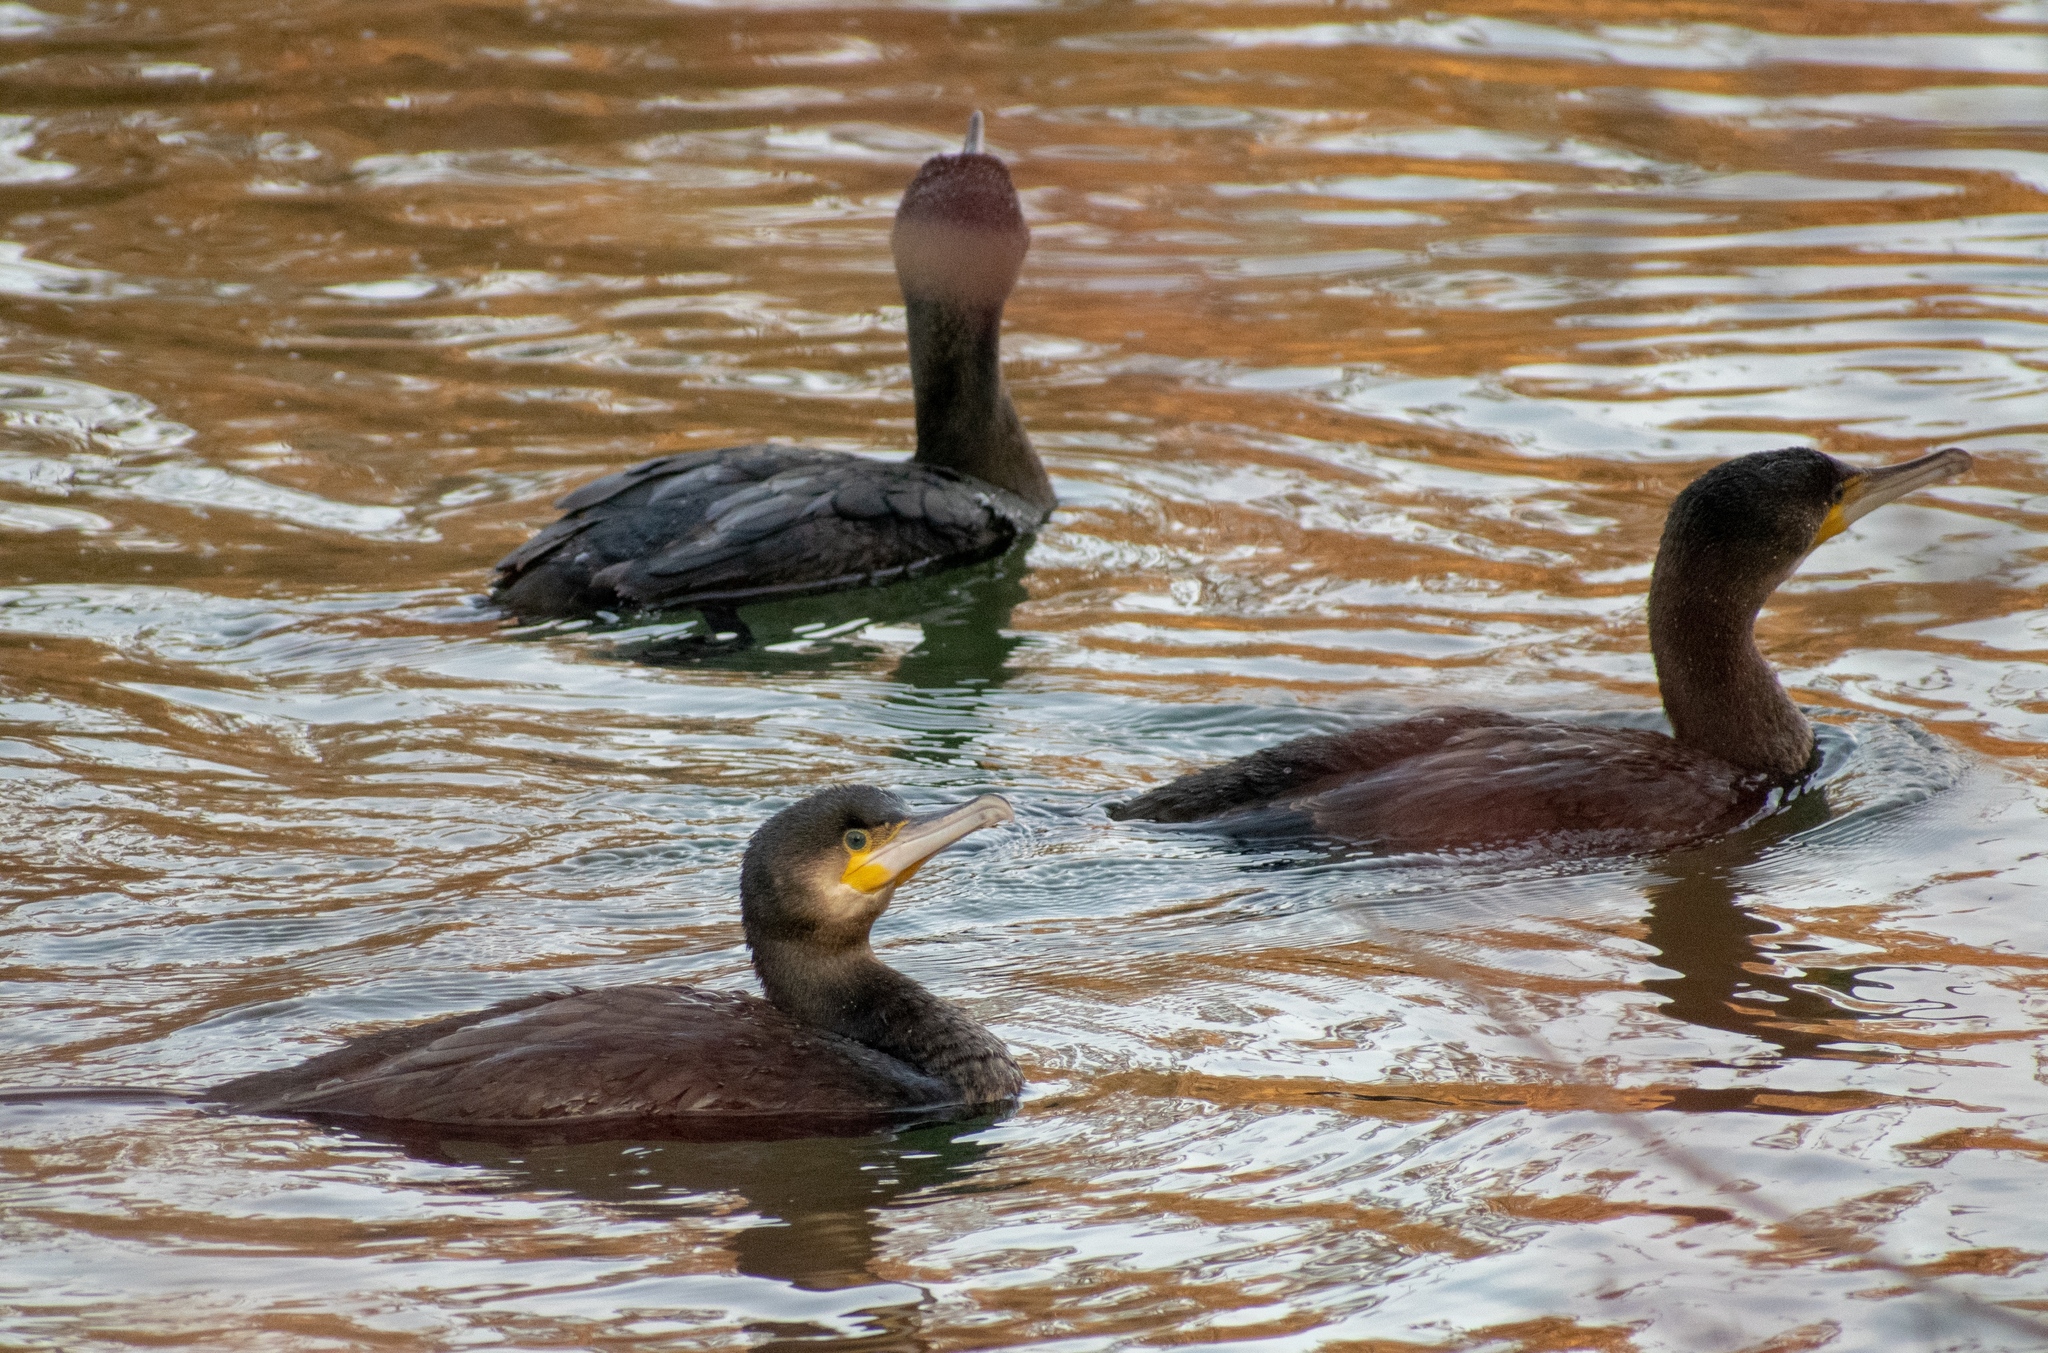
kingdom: Animalia
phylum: Chordata
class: Aves
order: Suliformes
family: Phalacrocoracidae
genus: Phalacrocorax
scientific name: Phalacrocorax carbo
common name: Great cormorant
